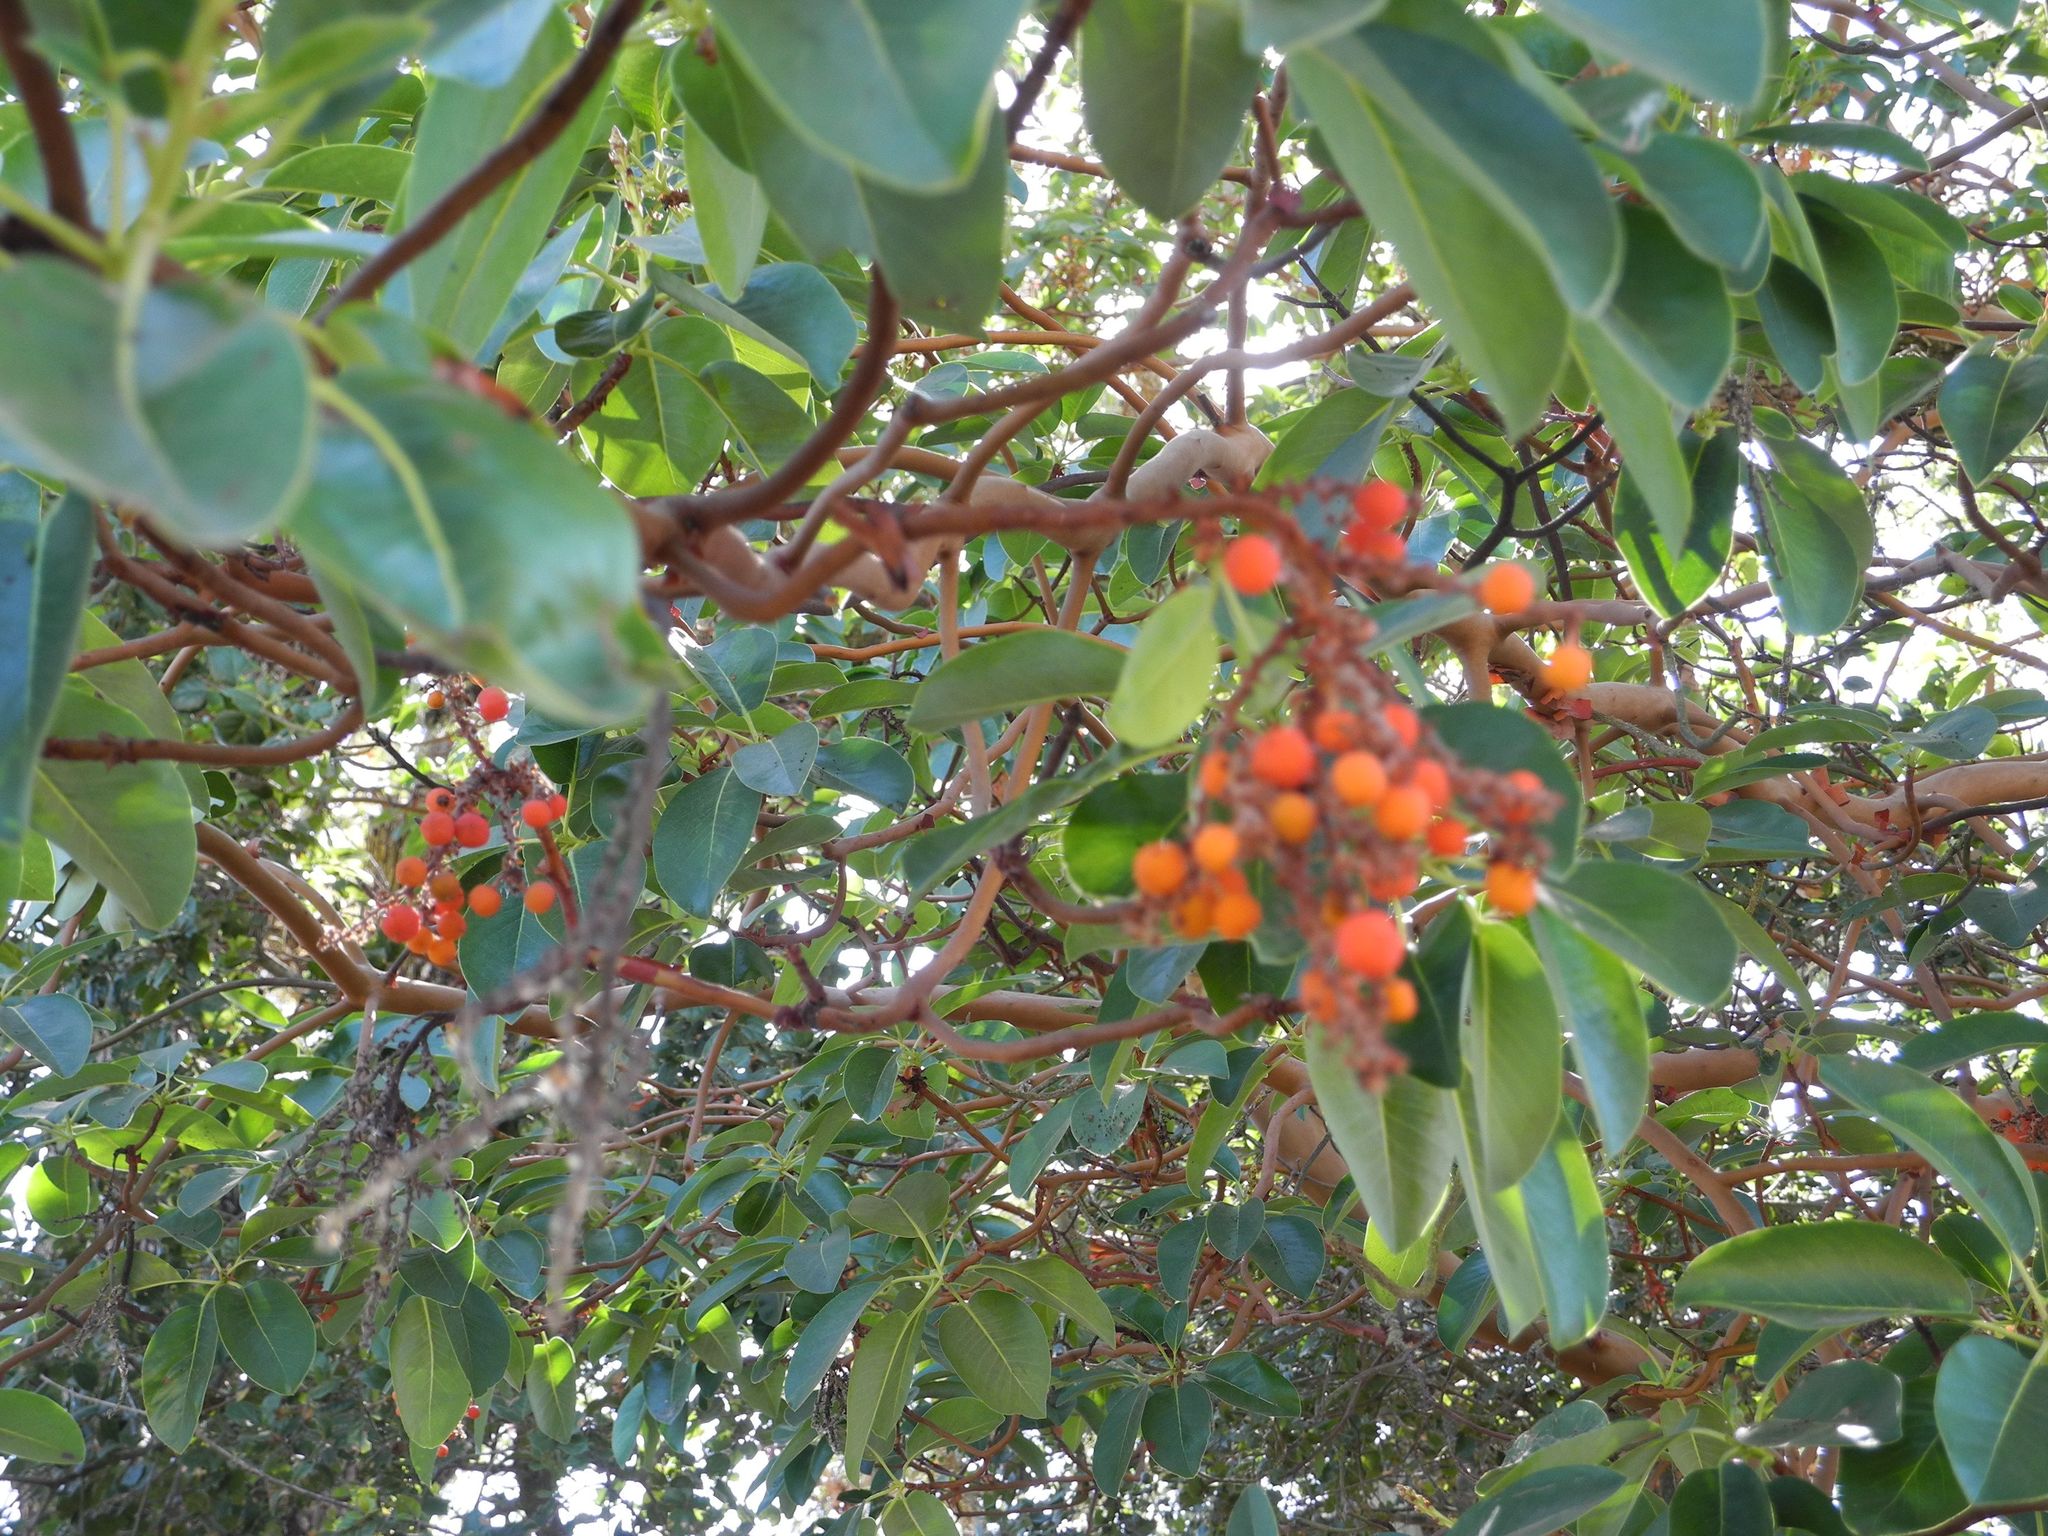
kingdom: Plantae
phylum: Tracheophyta
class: Magnoliopsida
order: Ericales
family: Ericaceae
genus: Arbutus
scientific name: Arbutus menziesii
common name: Pacific madrone
